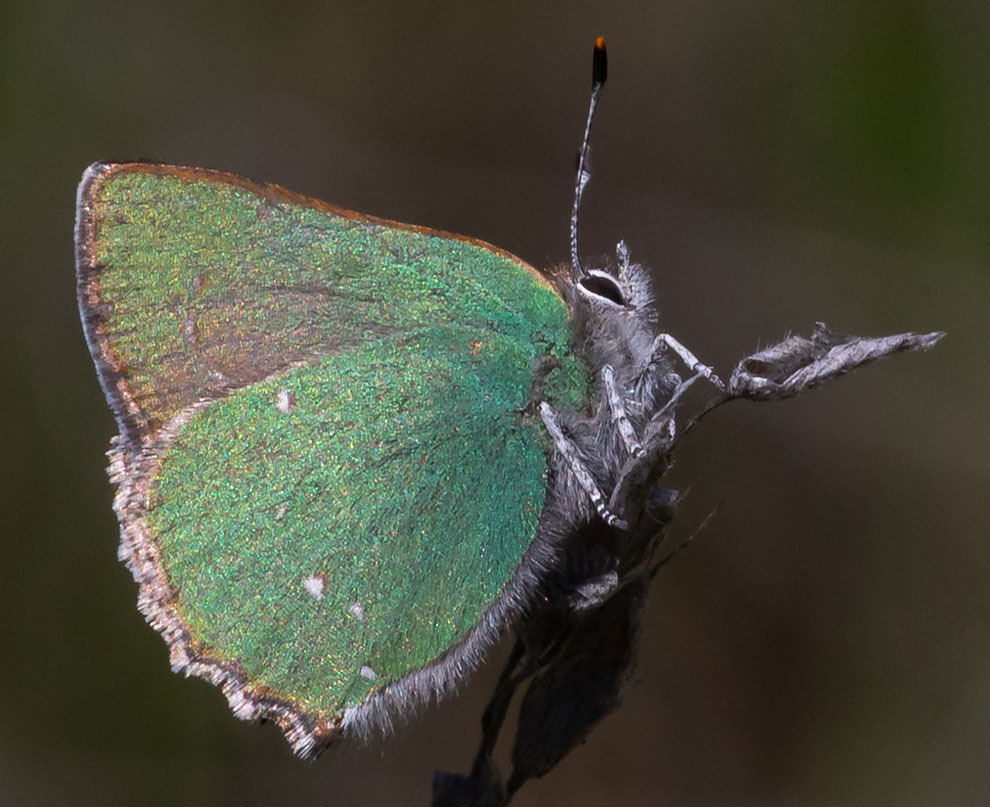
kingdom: Animalia
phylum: Arthropoda
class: Insecta
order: Lepidoptera
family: Lycaenidae
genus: Callophrys
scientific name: Callophrys dumetorum
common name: Bramble hairstreak
